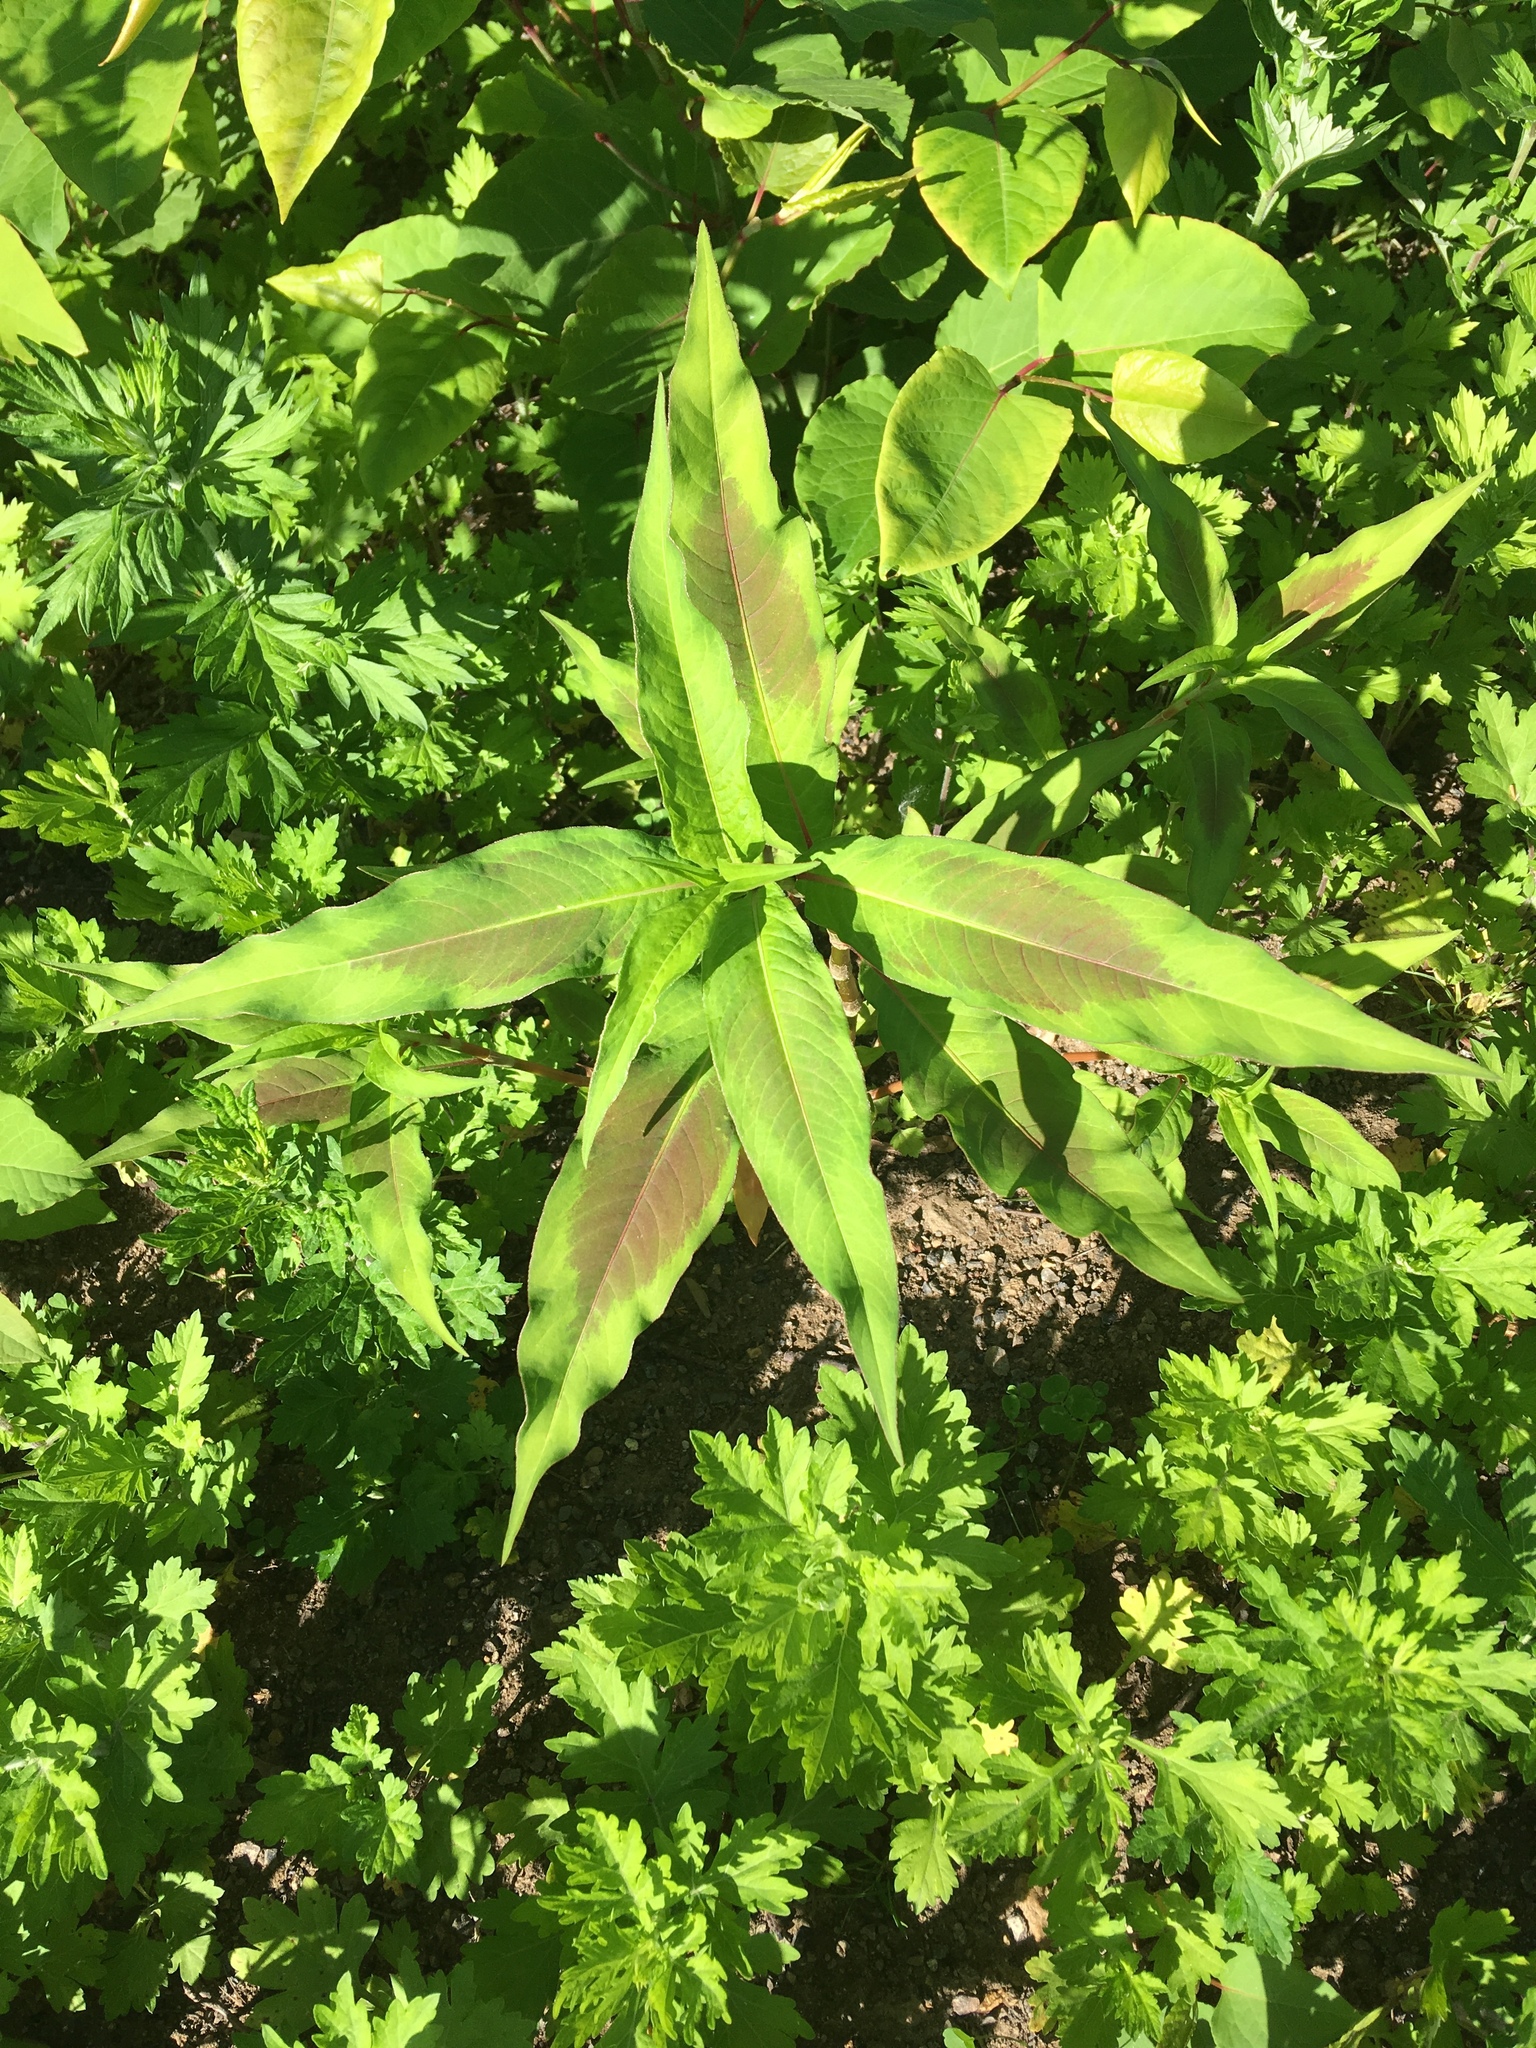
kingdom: Plantae
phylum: Tracheophyta
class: Magnoliopsida
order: Caryophyllales
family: Polygonaceae
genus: Persicaria
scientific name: Persicaria extremiorientalis
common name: Far-eastern smartweed
